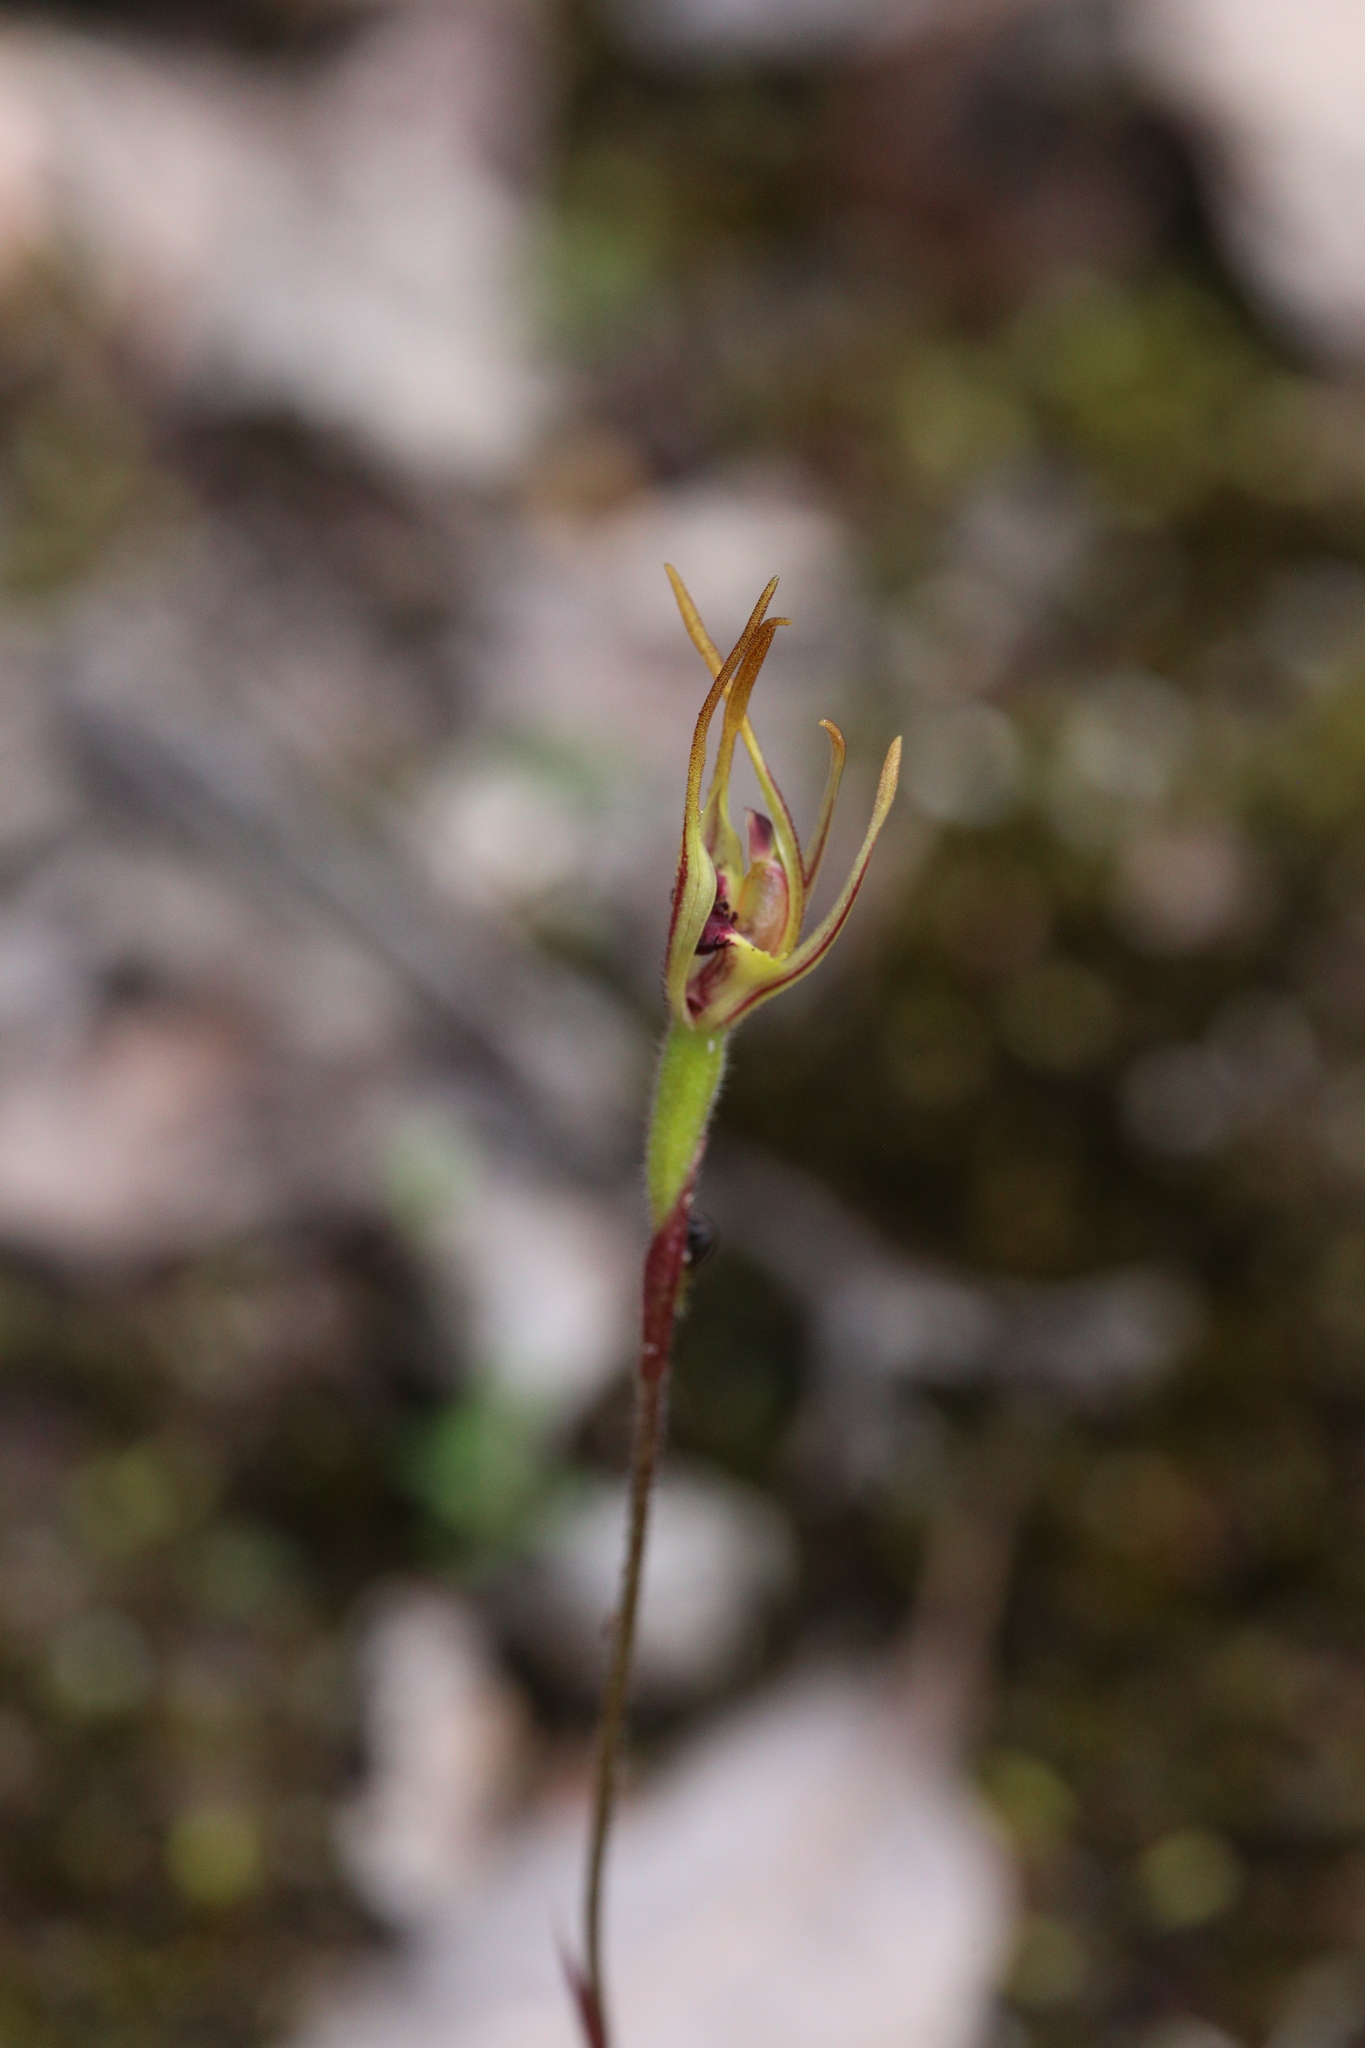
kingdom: Plantae
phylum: Tracheophyta
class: Liliopsida
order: Asparagales
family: Orchidaceae
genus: Caladenia
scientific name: Caladenia ensata
